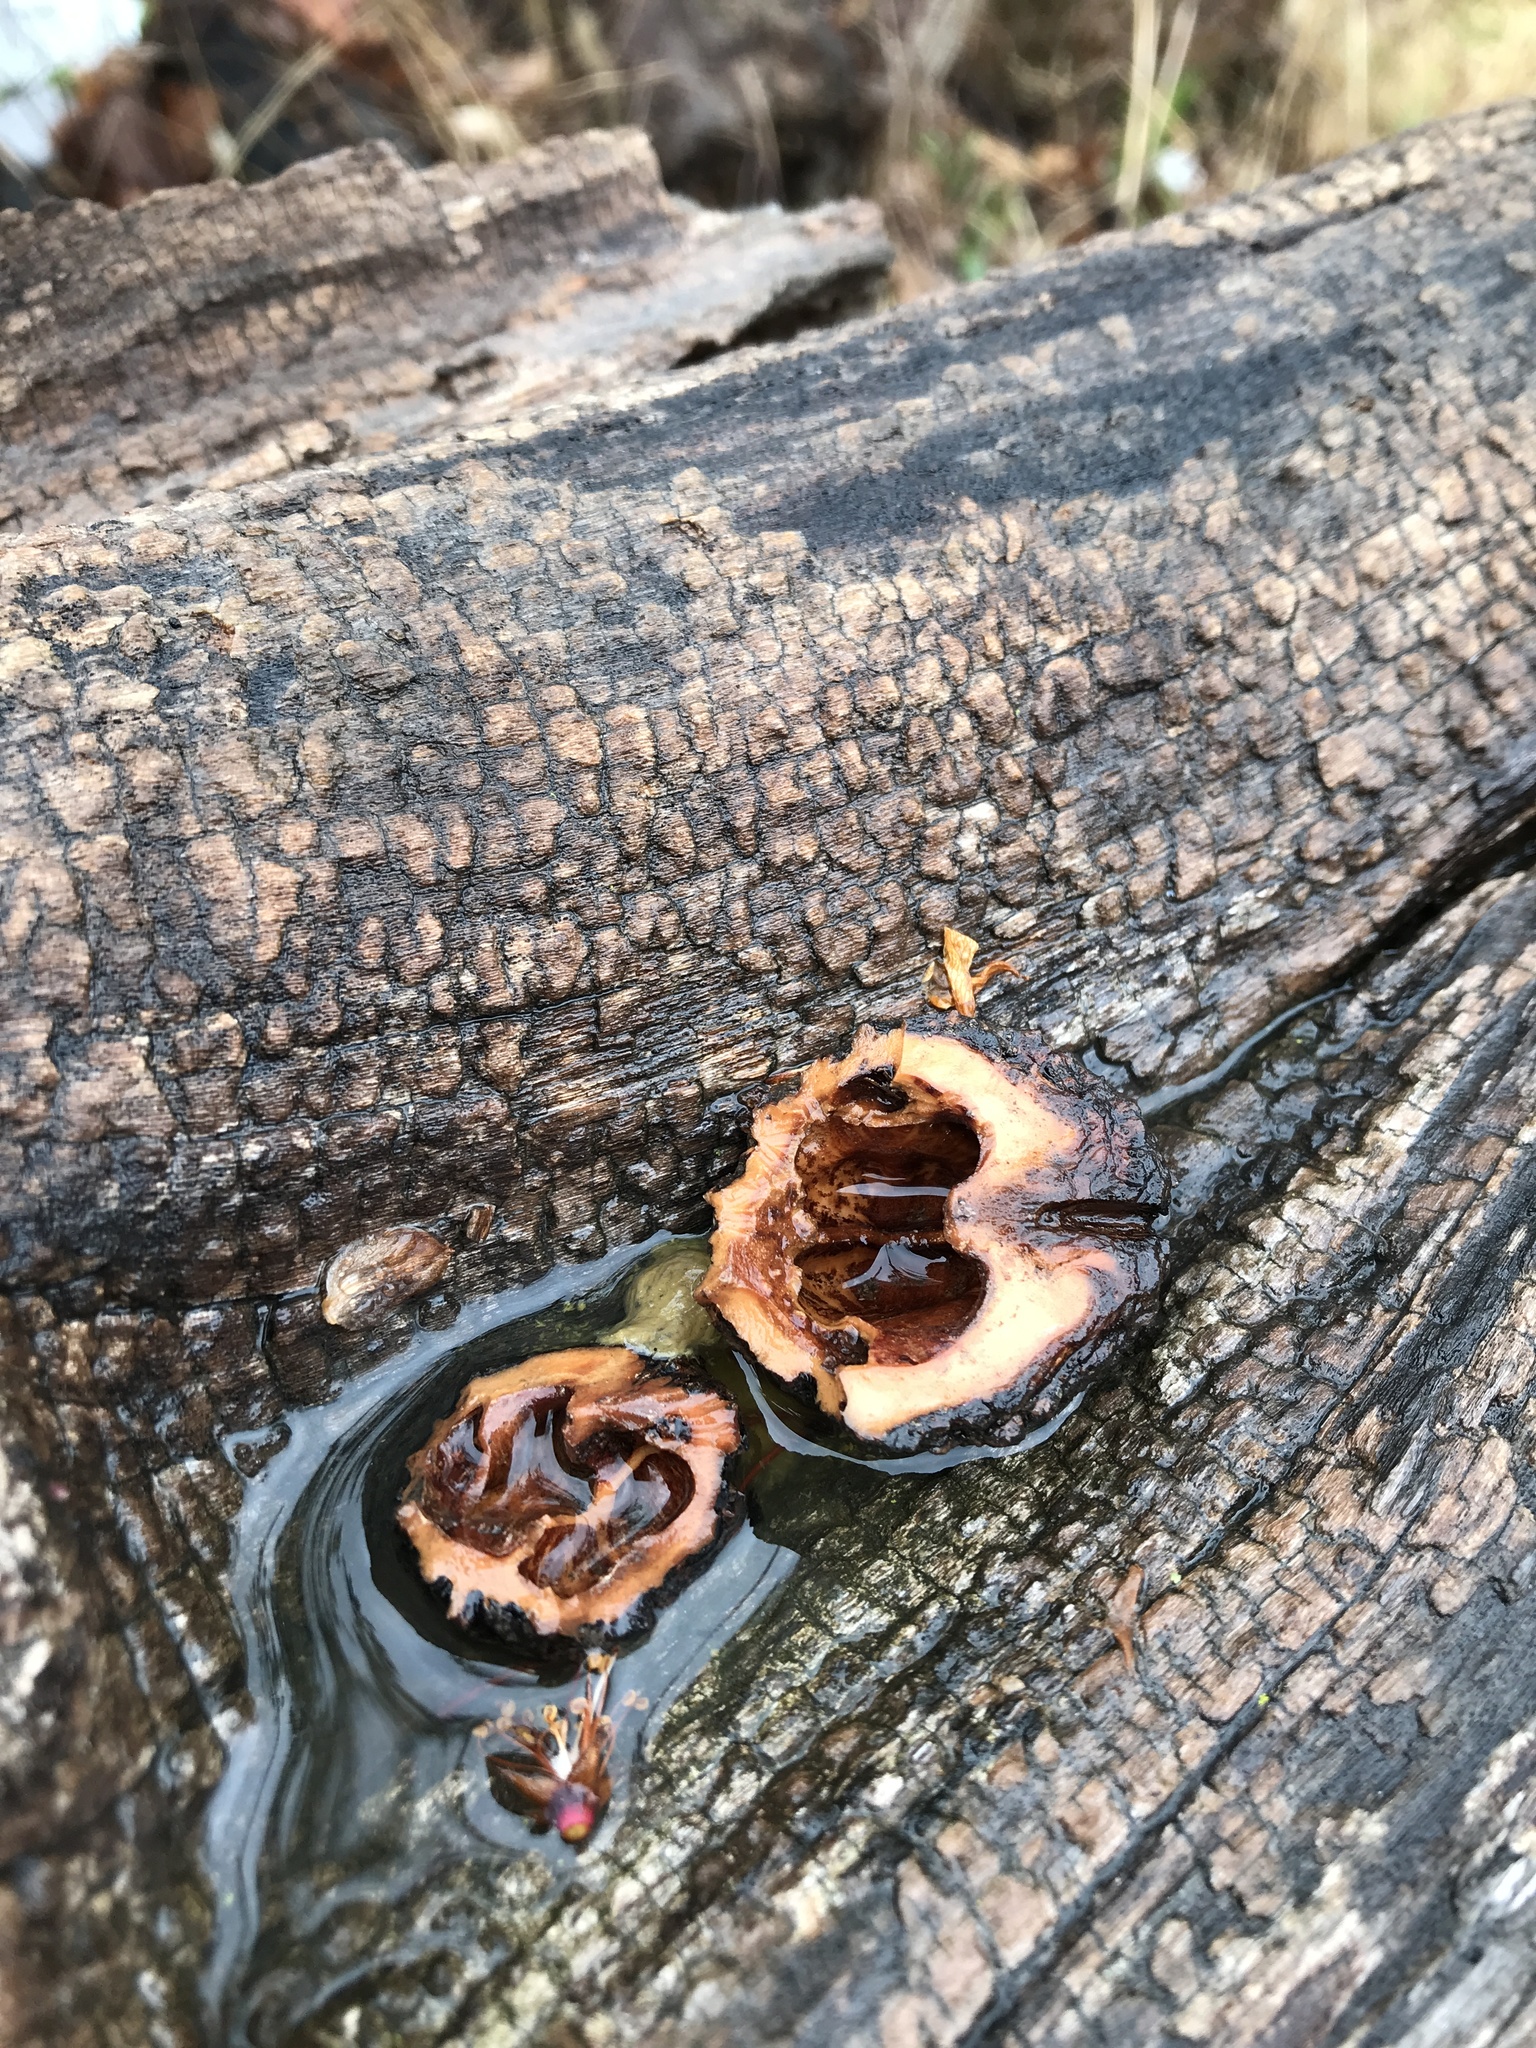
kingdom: Plantae
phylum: Tracheophyta
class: Magnoliopsida
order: Fagales
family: Juglandaceae
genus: Juglans
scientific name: Juglans nigra
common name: Black walnut
